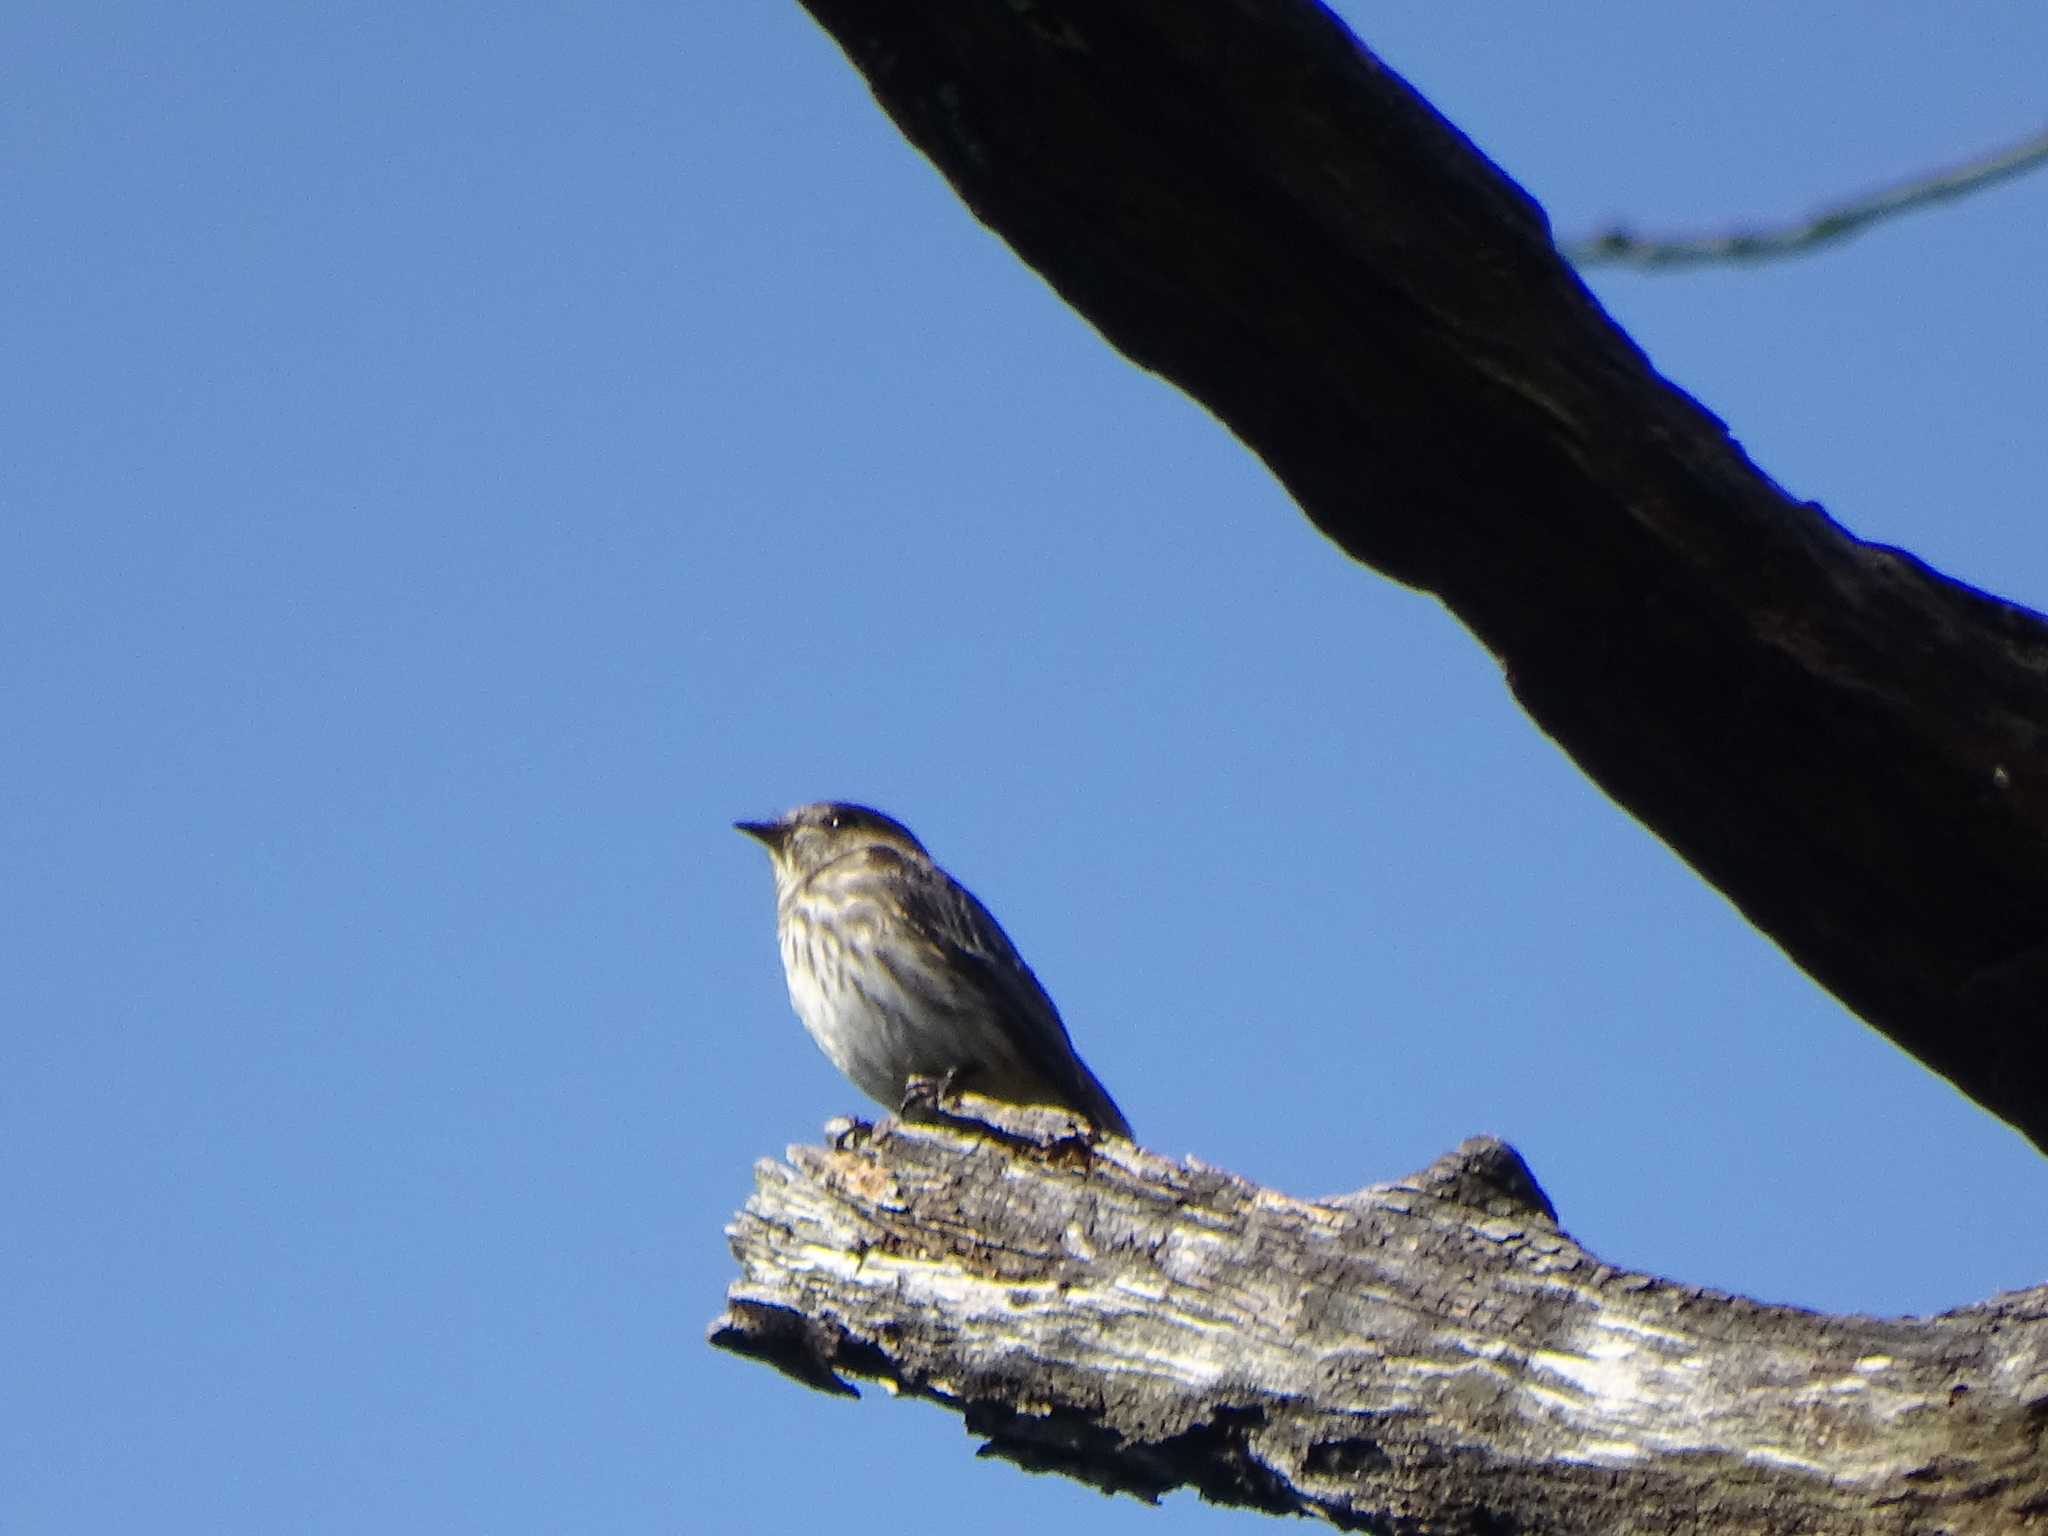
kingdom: Animalia
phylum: Chordata
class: Aves
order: Passeriformes
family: Muscicapidae
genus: Muscicapa
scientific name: Muscicapa griseisticta
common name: Gray-streaked flycatcher
